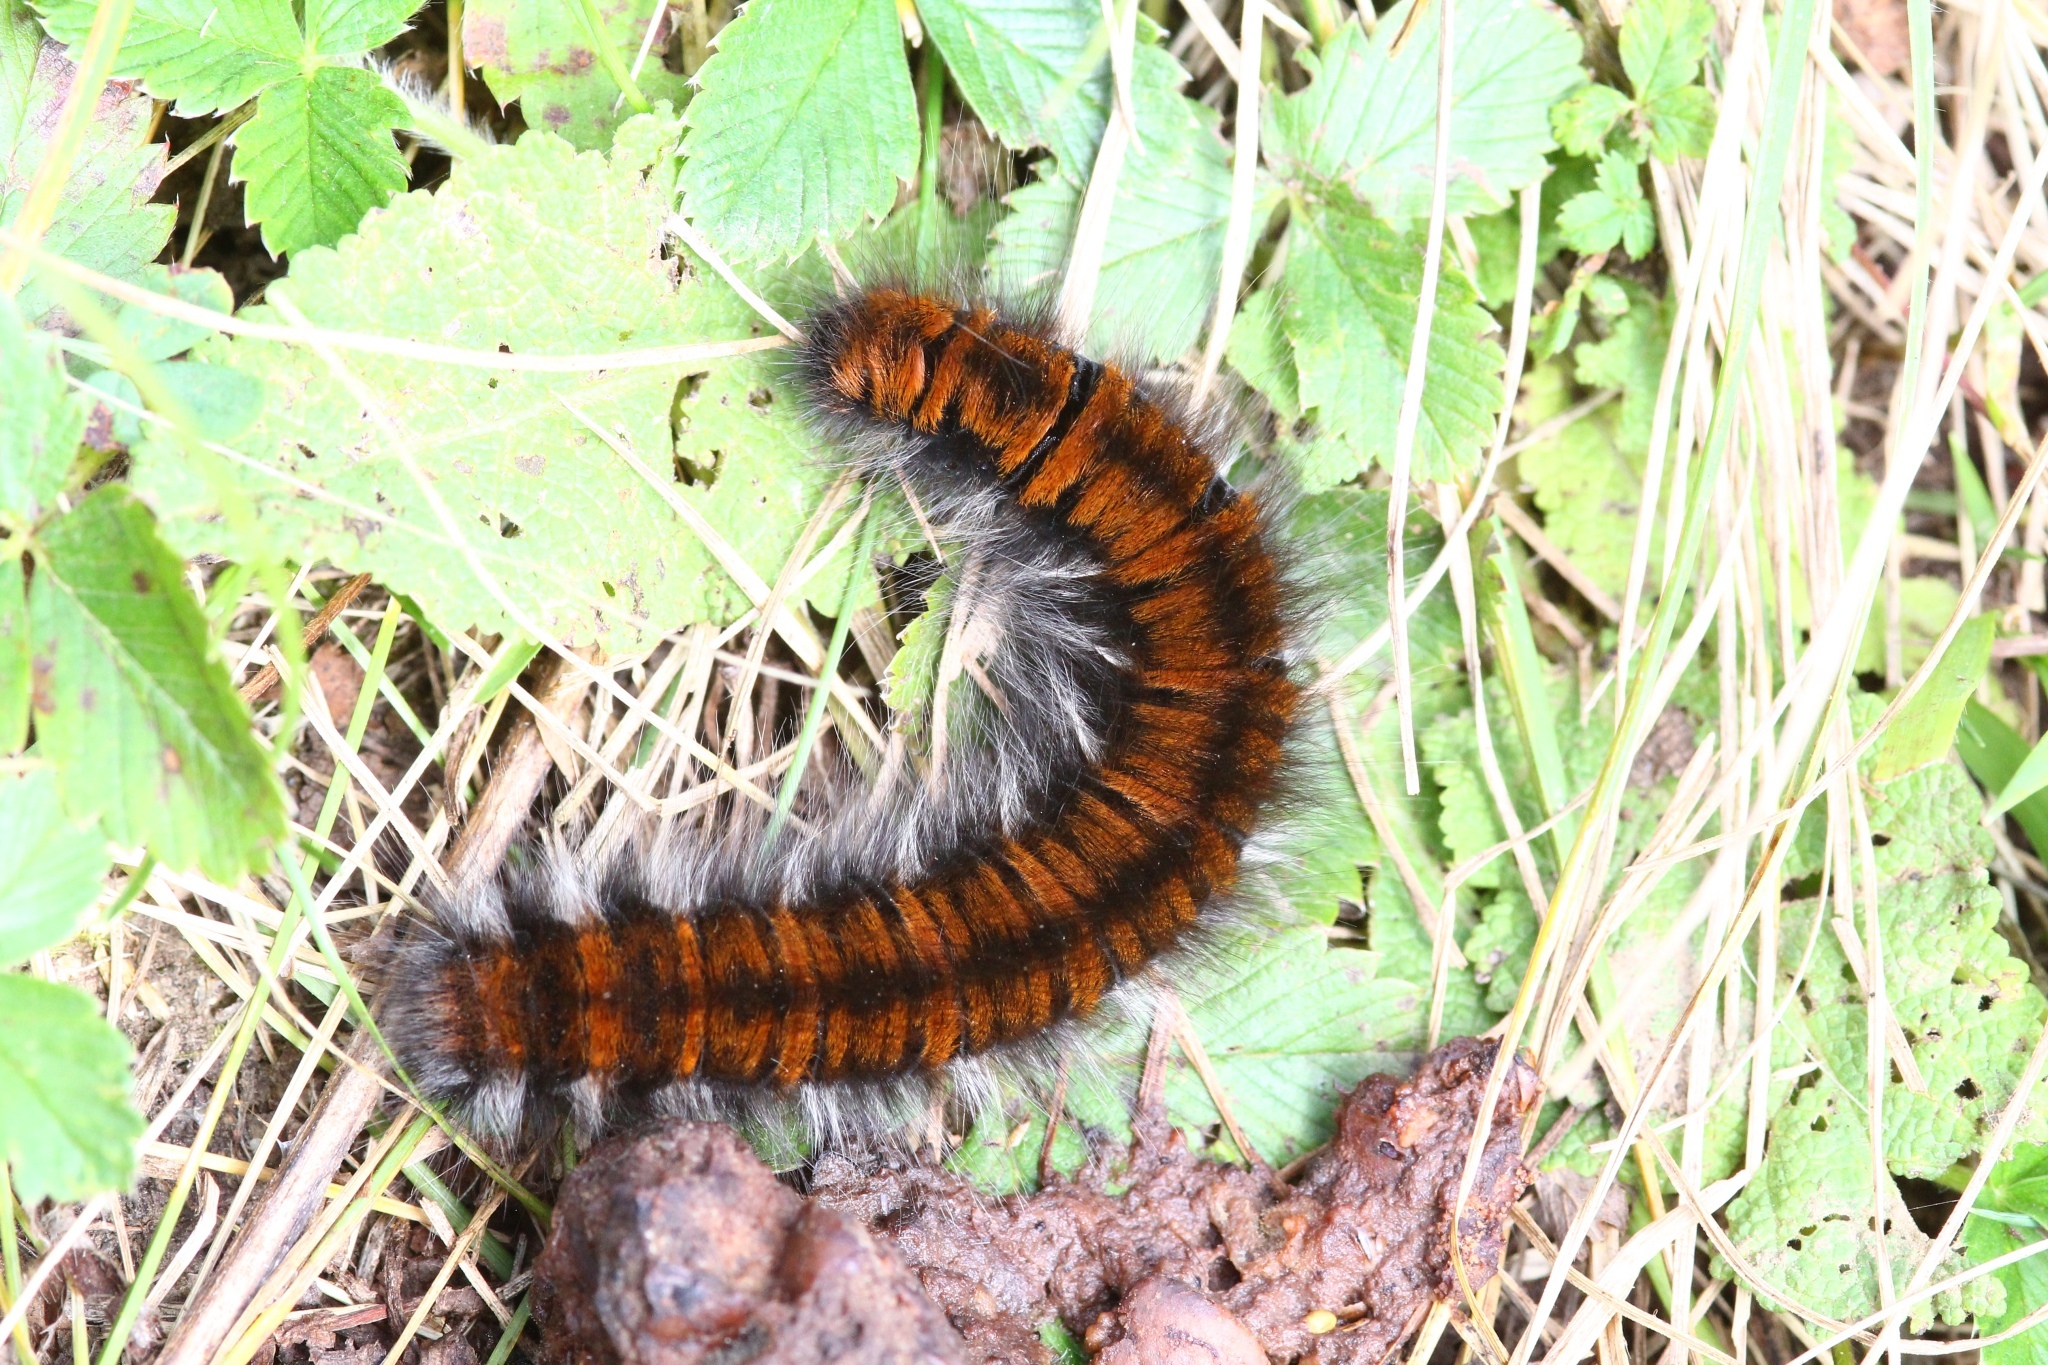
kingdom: Animalia
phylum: Arthropoda
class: Insecta
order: Lepidoptera
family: Lasiocampidae
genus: Macrothylacia
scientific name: Macrothylacia rubi
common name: Fox moth
